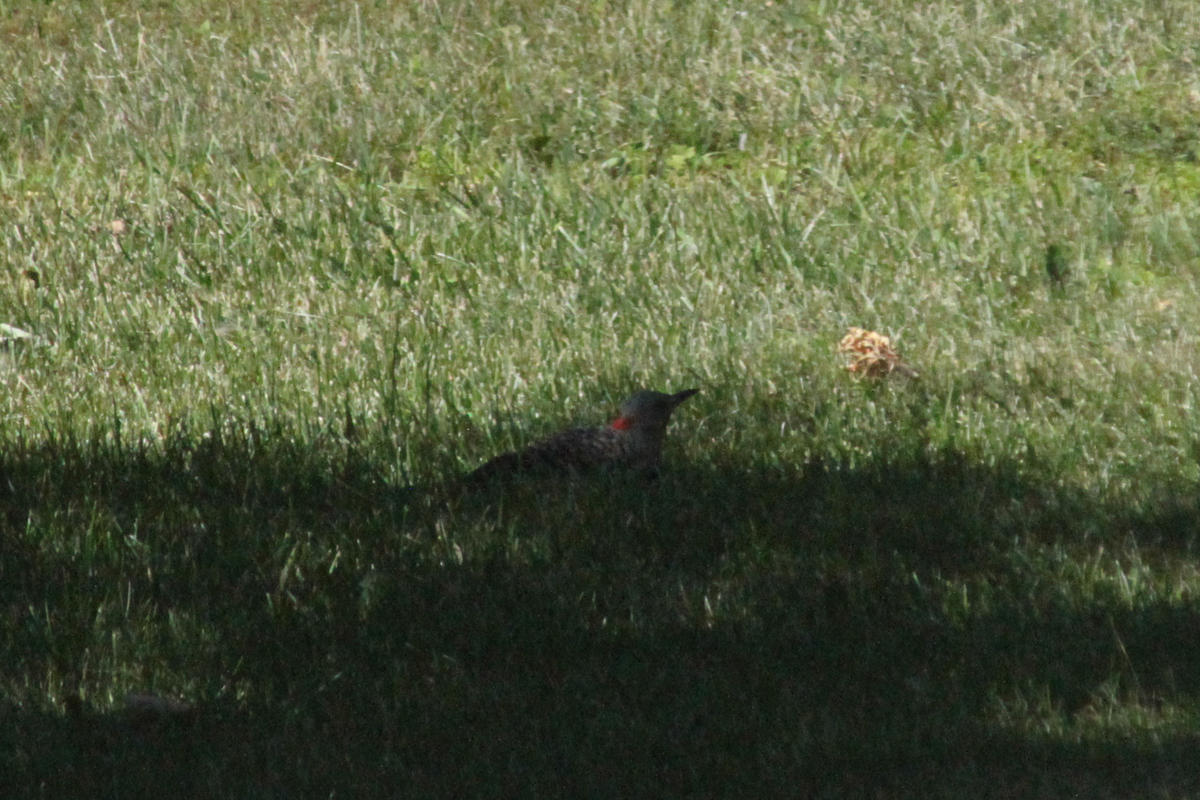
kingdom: Animalia
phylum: Chordata
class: Aves
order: Piciformes
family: Picidae
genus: Colaptes
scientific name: Colaptes auratus
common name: Northern flicker
